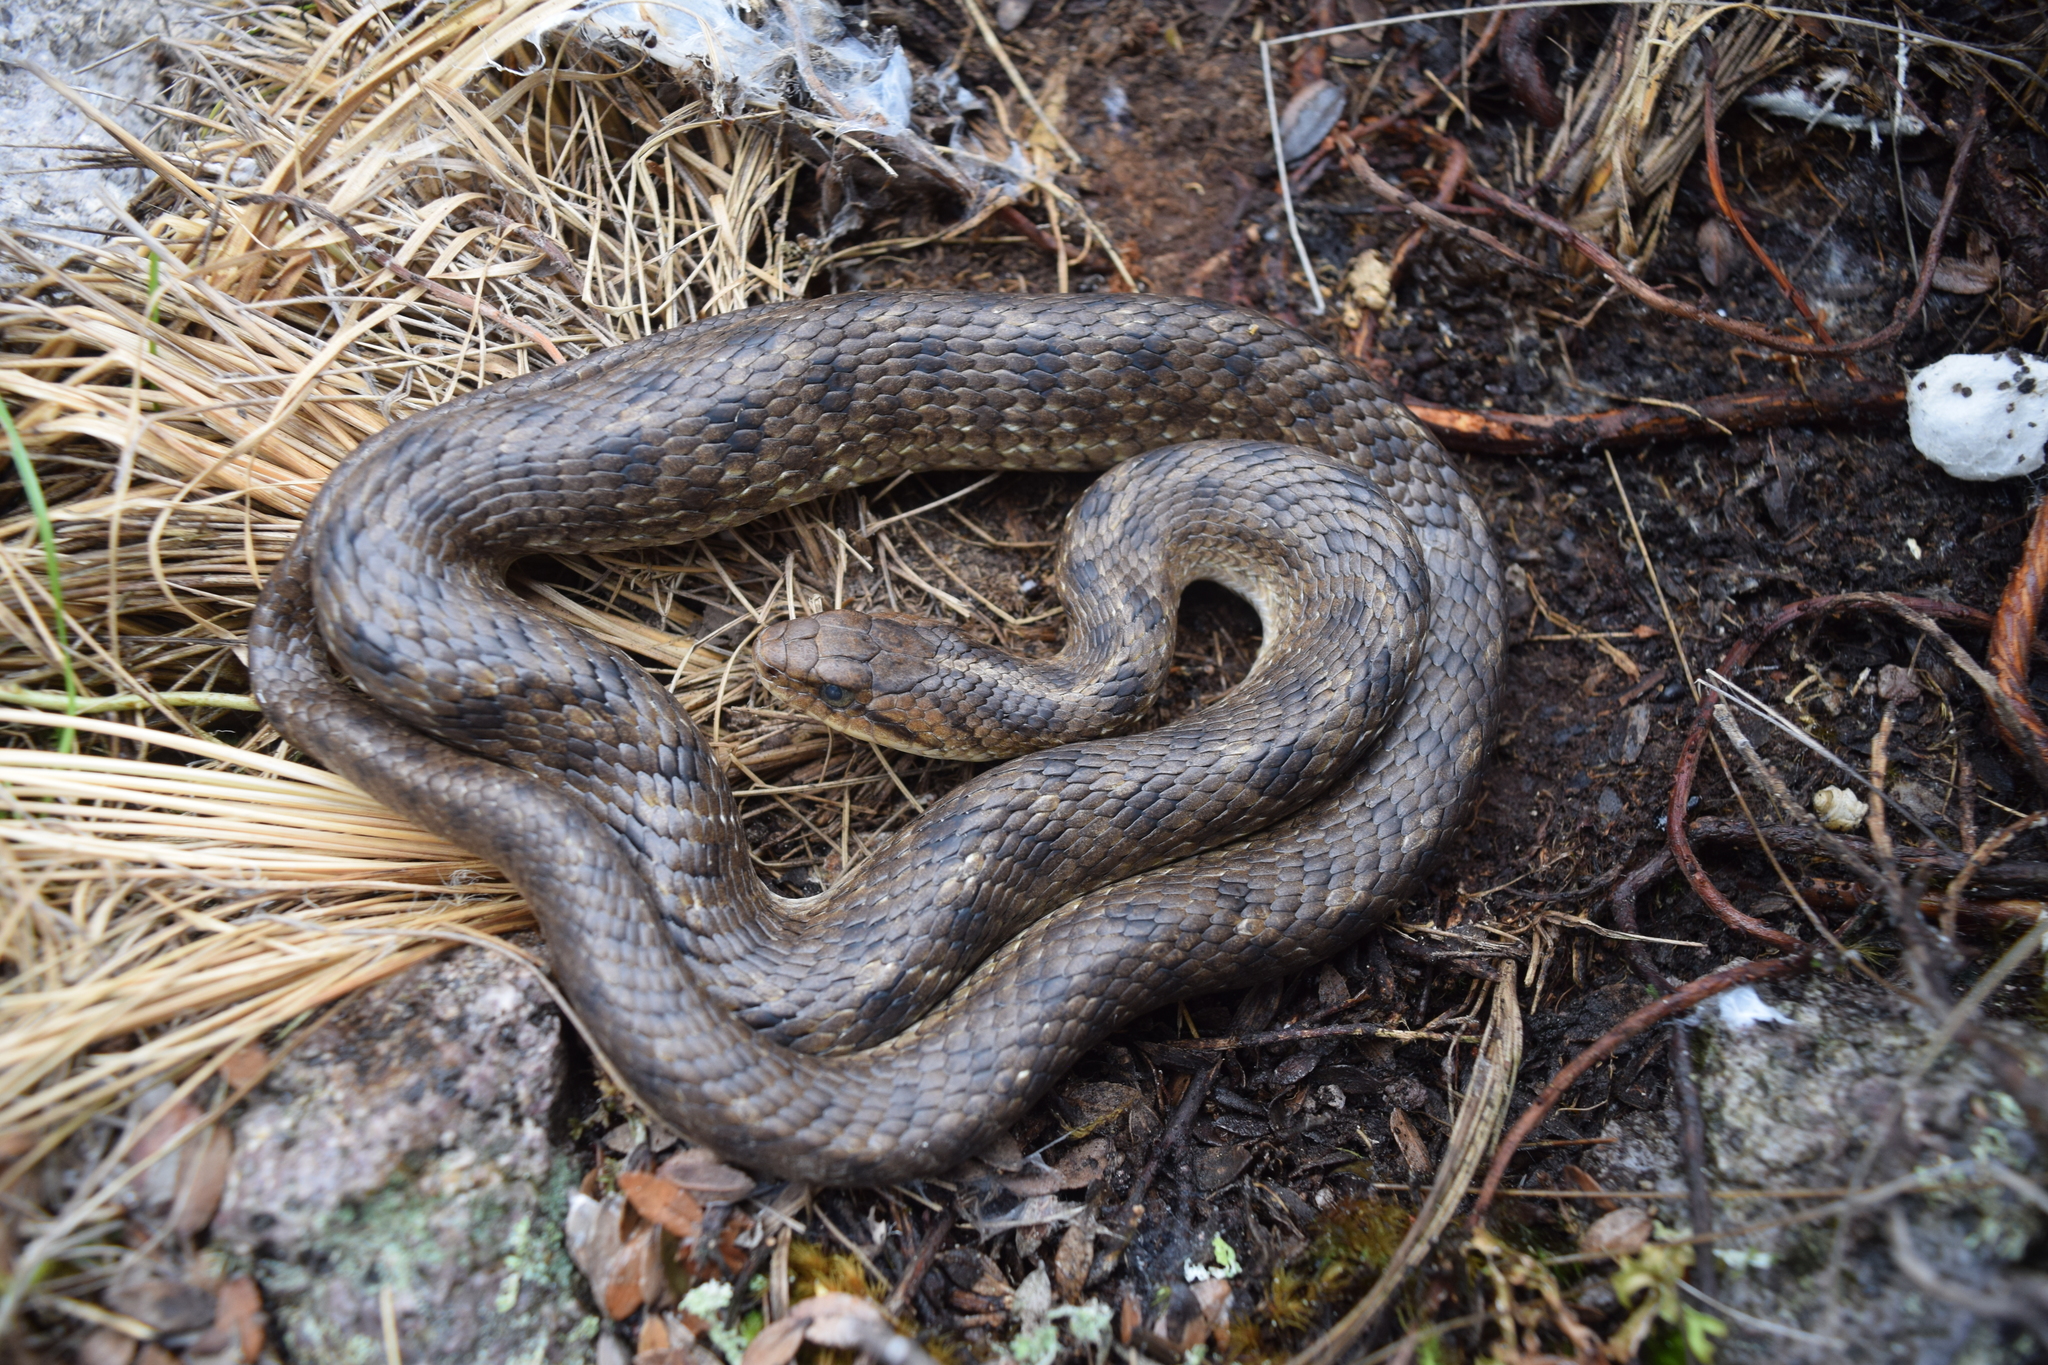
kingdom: Animalia
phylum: Chordata
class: Squamata
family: Colubridae
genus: Tachymenis
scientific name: Tachymenis peruviana
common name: Peru slender snake
